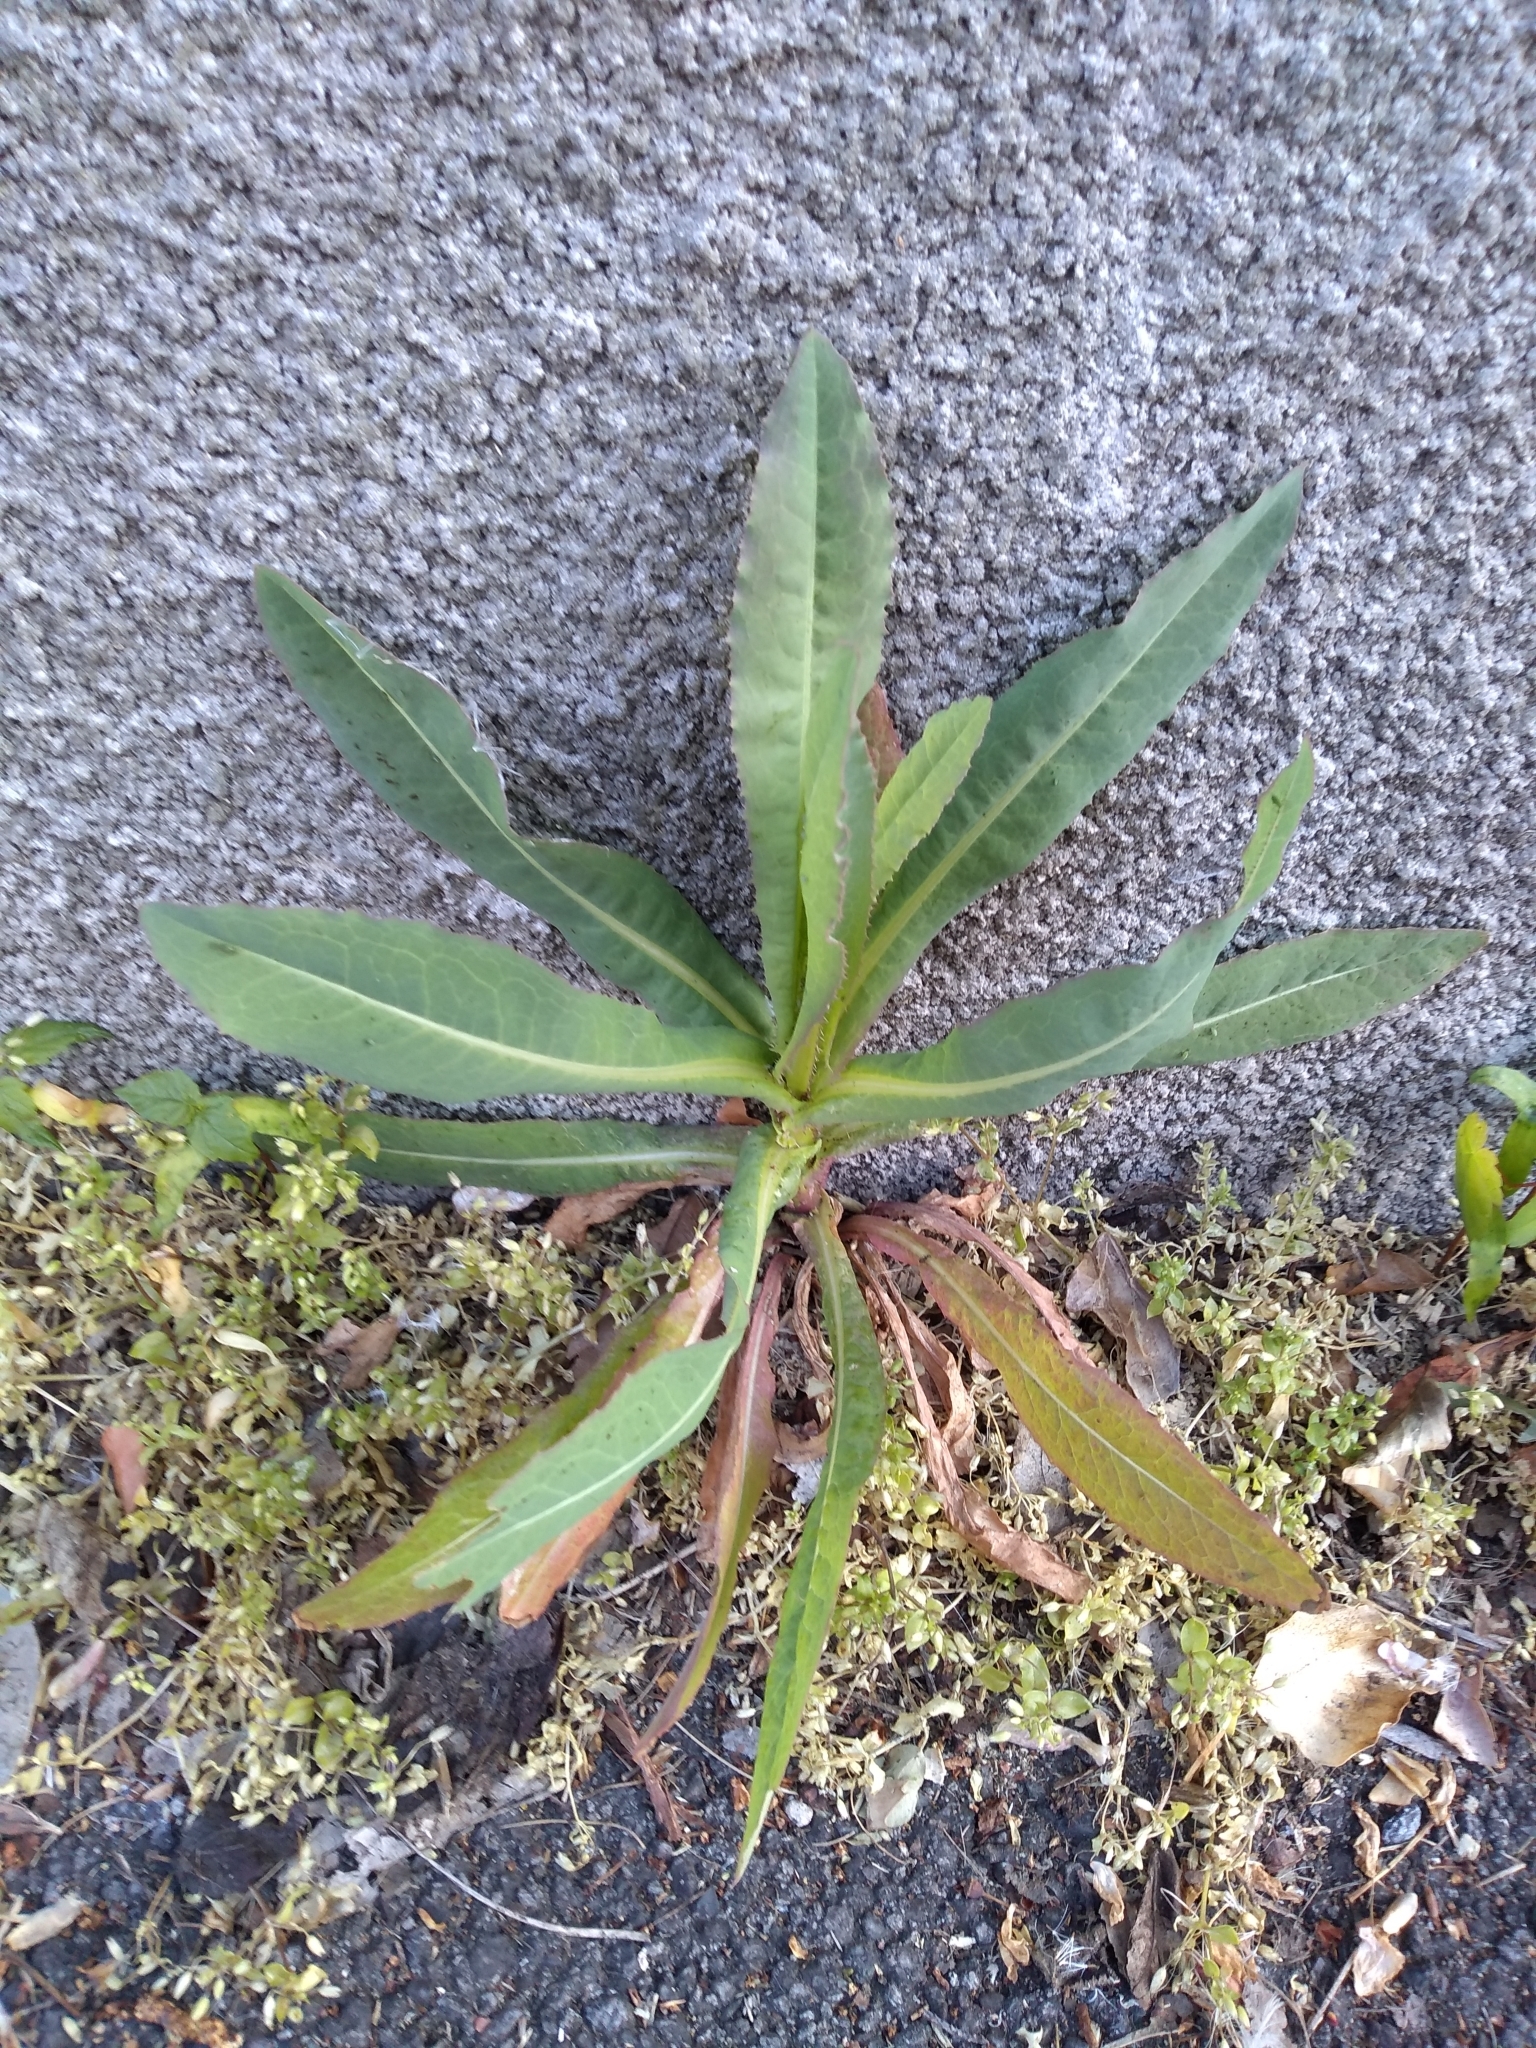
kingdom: Plantae
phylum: Tracheophyta
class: Magnoliopsida
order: Asterales
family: Asteraceae
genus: Lactuca
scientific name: Lactuca serriola
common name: Prickly lettuce
